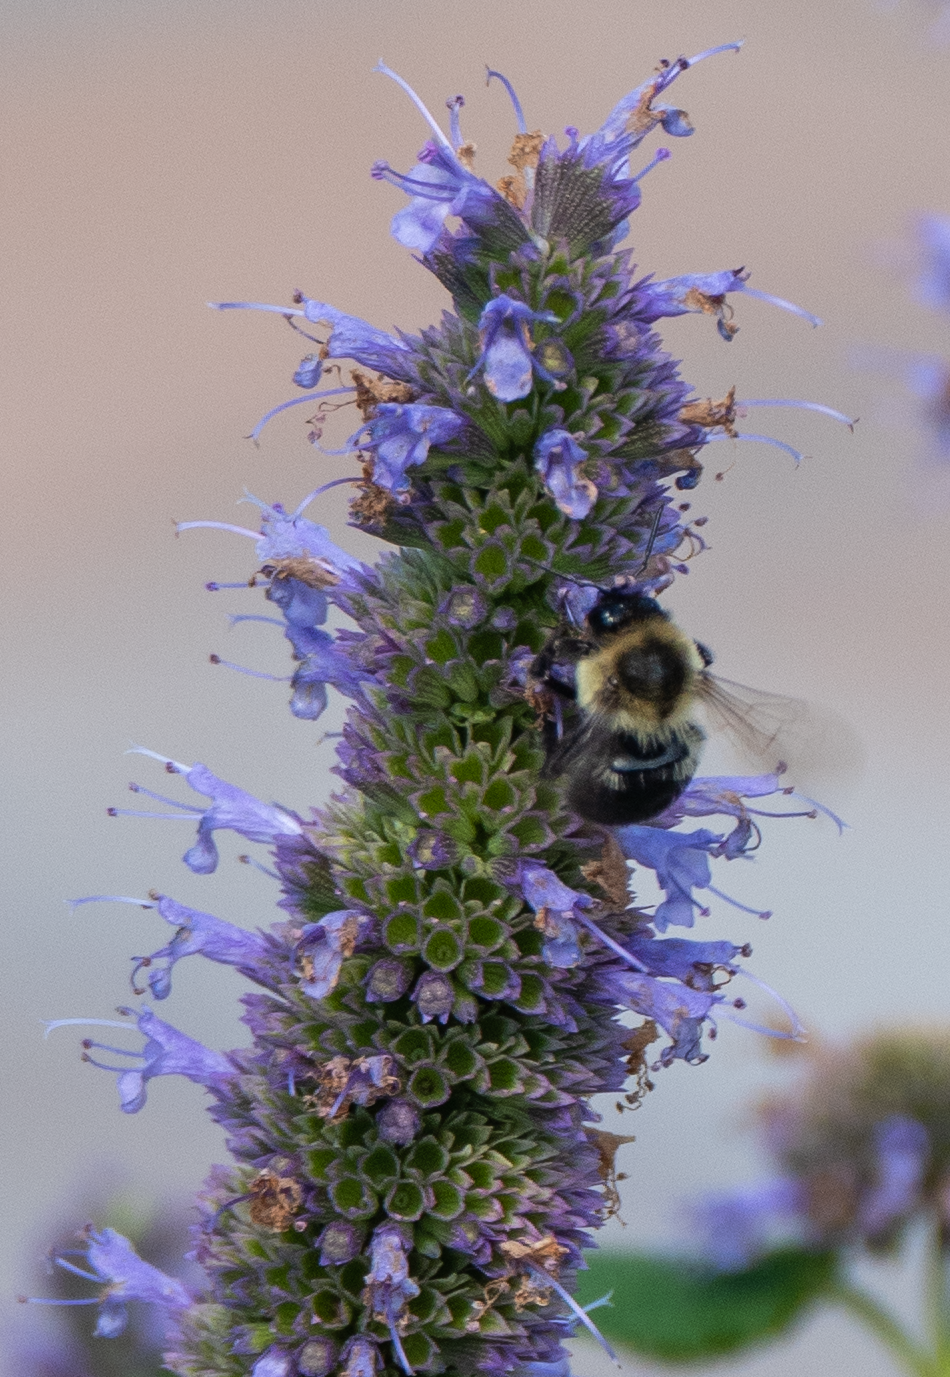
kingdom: Animalia
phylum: Arthropoda
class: Insecta
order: Hymenoptera
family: Apidae
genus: Bombus
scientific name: Bombus impatiens
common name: Common eastern bumble bee
